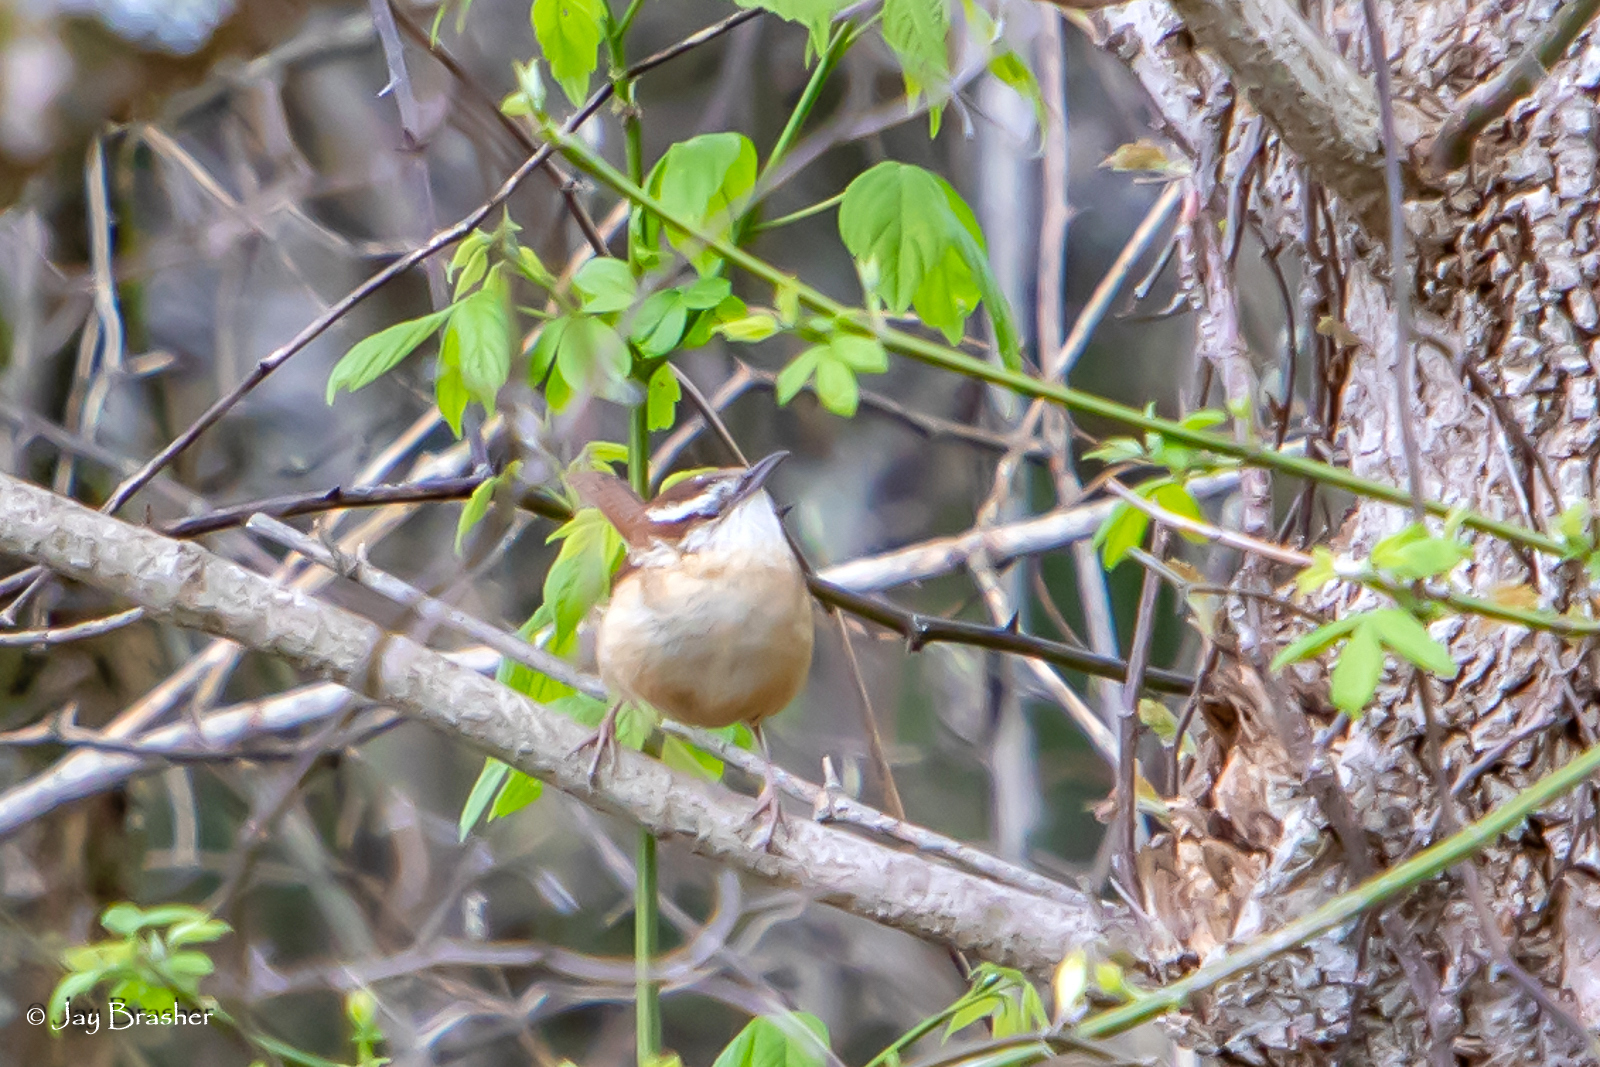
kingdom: Animalia
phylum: Chordata
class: Aves
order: Passeriformes
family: Troglodytidae
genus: Thryothorus
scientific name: Thryothorus ludovicianus
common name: Carolina wren
